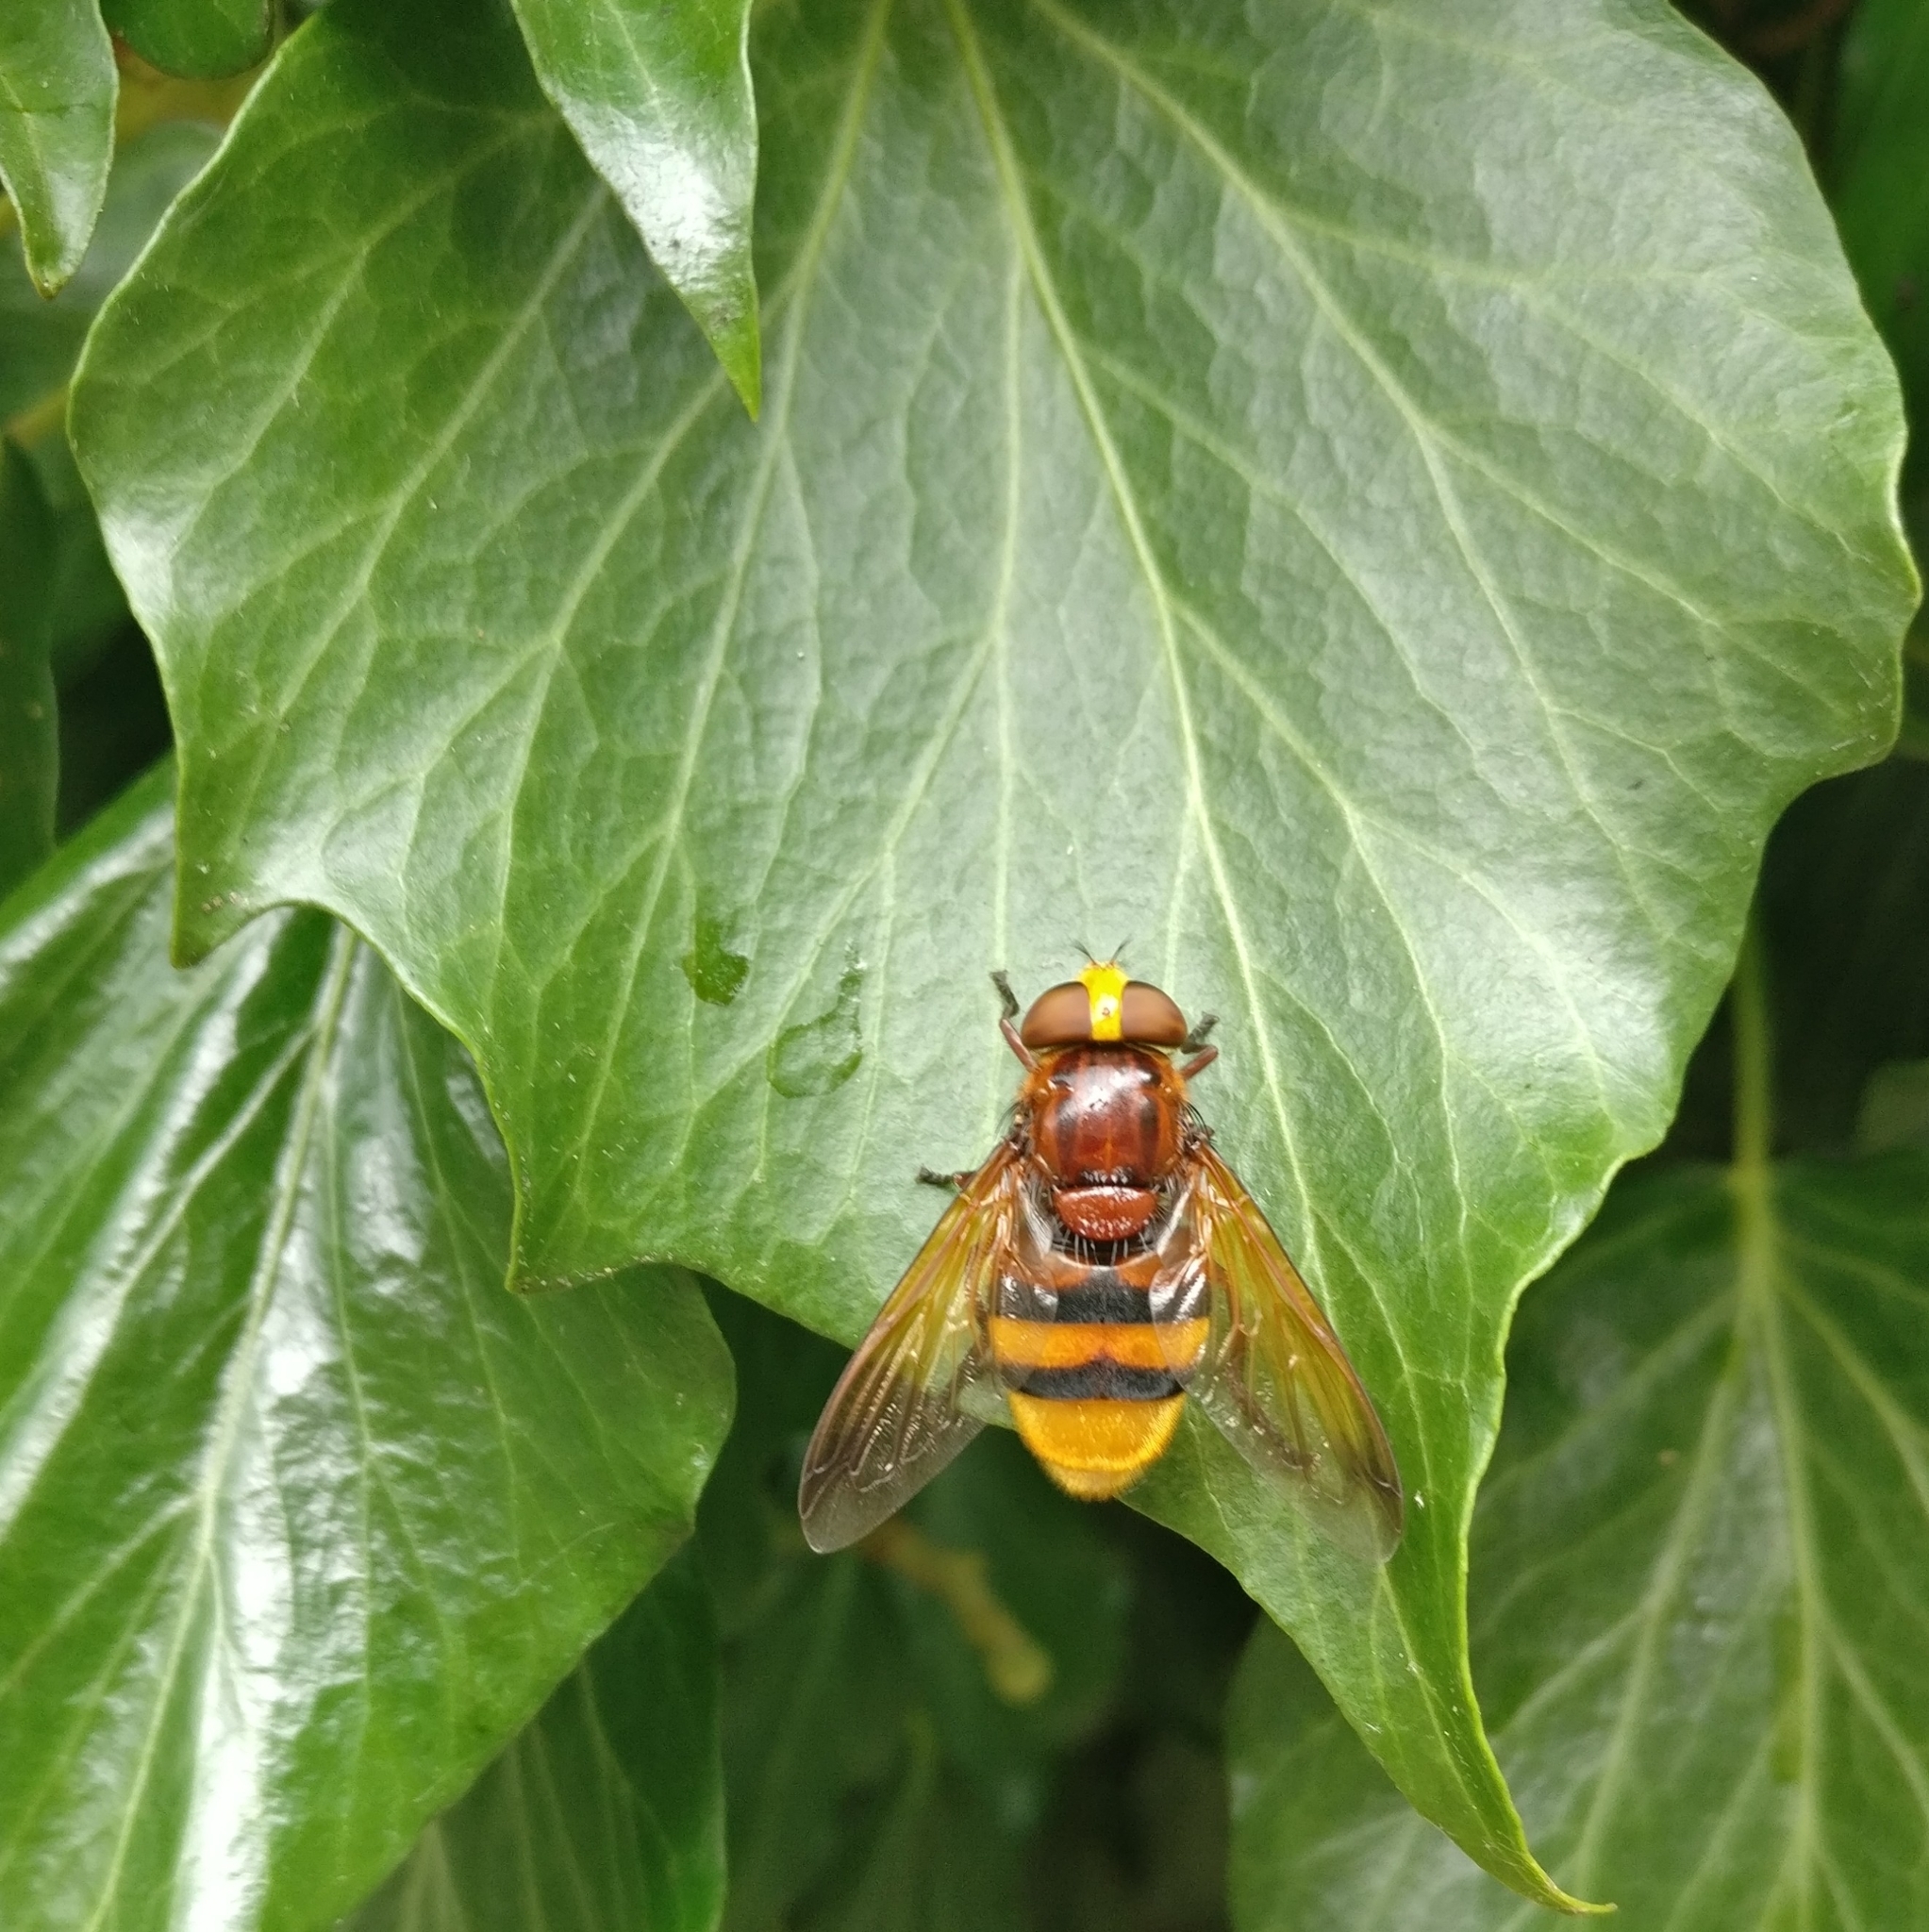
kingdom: Animalia
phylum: Arthropoda
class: Insecta
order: Diptera
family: Syrphidae
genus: Volucella
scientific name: Volucella zonaria
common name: Hornet hoverfly
